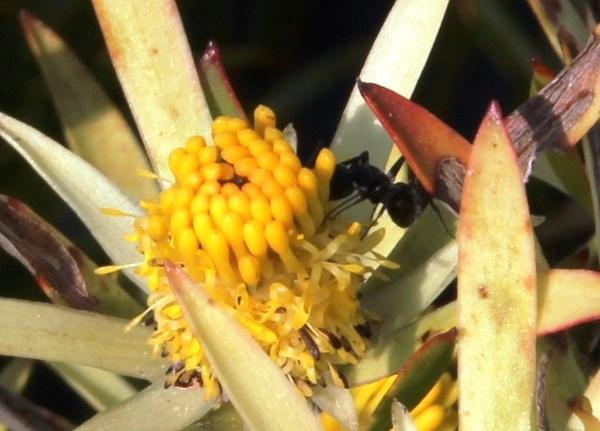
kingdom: Animalia
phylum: Arthropoda
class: Insecta
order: Hymenoptera
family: Formicidae
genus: Camponotus
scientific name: Camponotus niveosetosus
